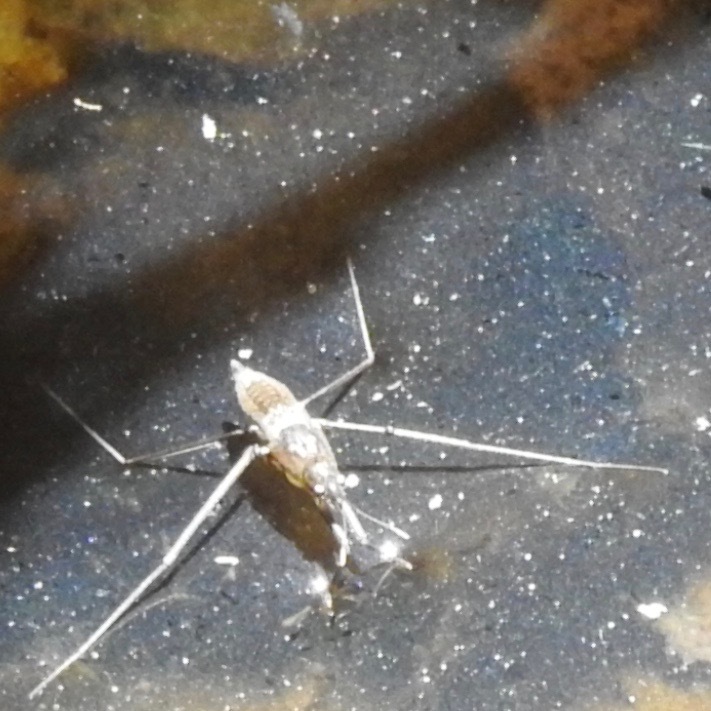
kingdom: Animalia
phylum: Arthropoda
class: Insecta
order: Hemiptera
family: Gerridae
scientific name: Gerridae
